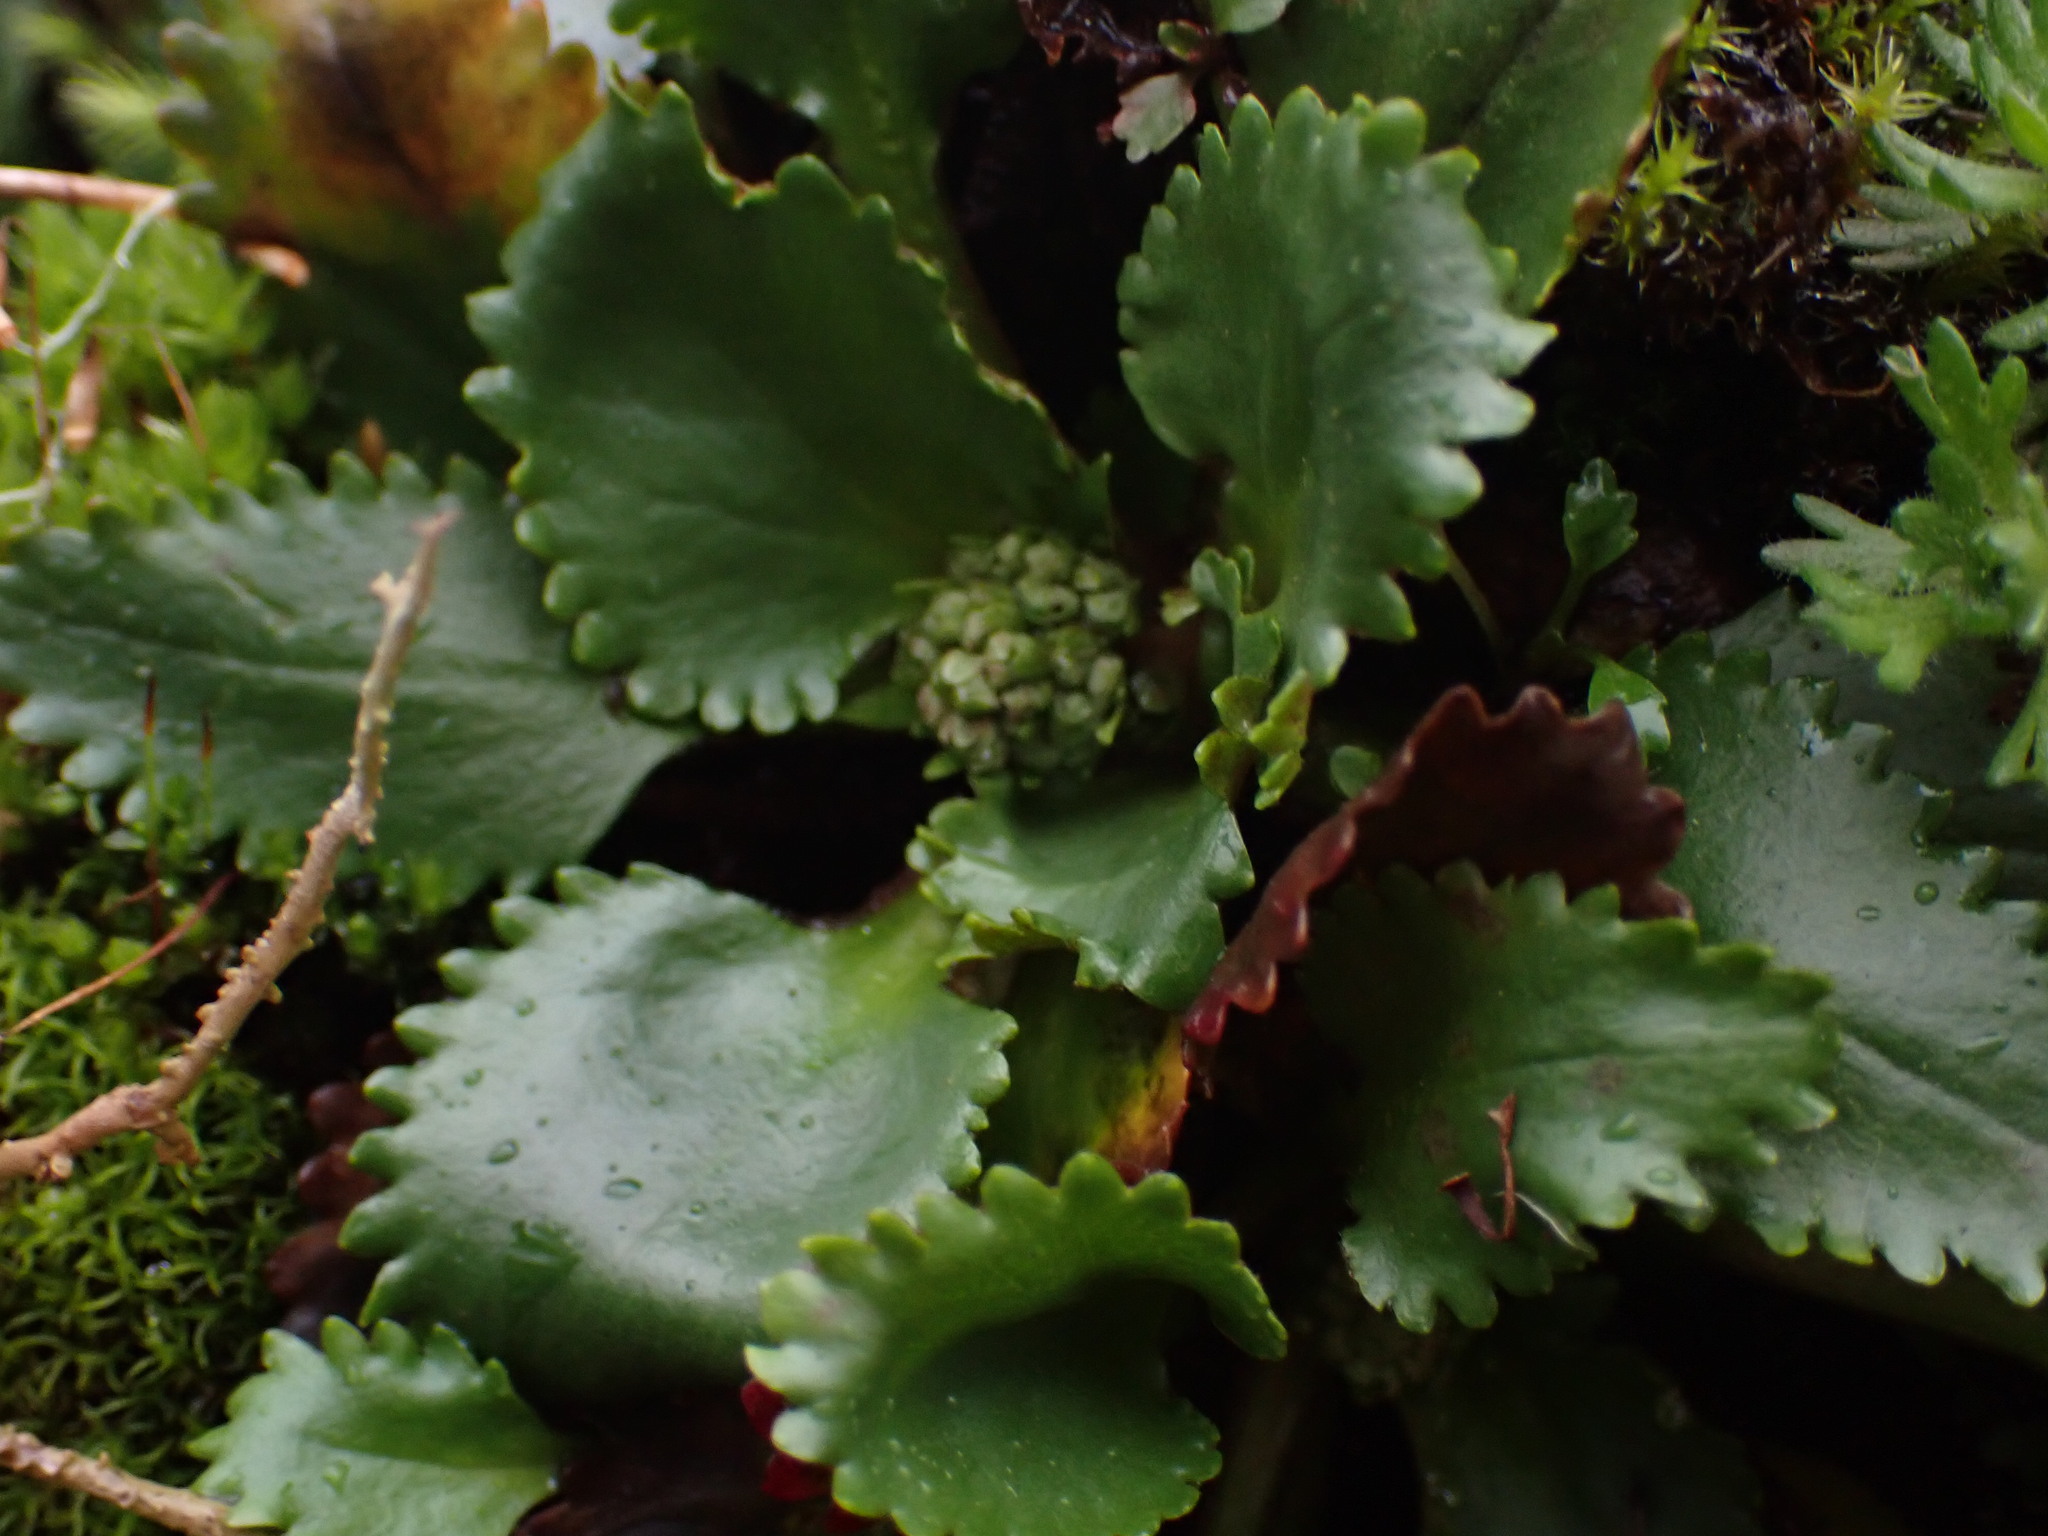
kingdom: Plantae
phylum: Tracheophyta
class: Magnoliopsida
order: Saxifragales
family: Saxifragaceae
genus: Micranthes
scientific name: Micranthes rufidula
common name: Rustyhair saxifrage
